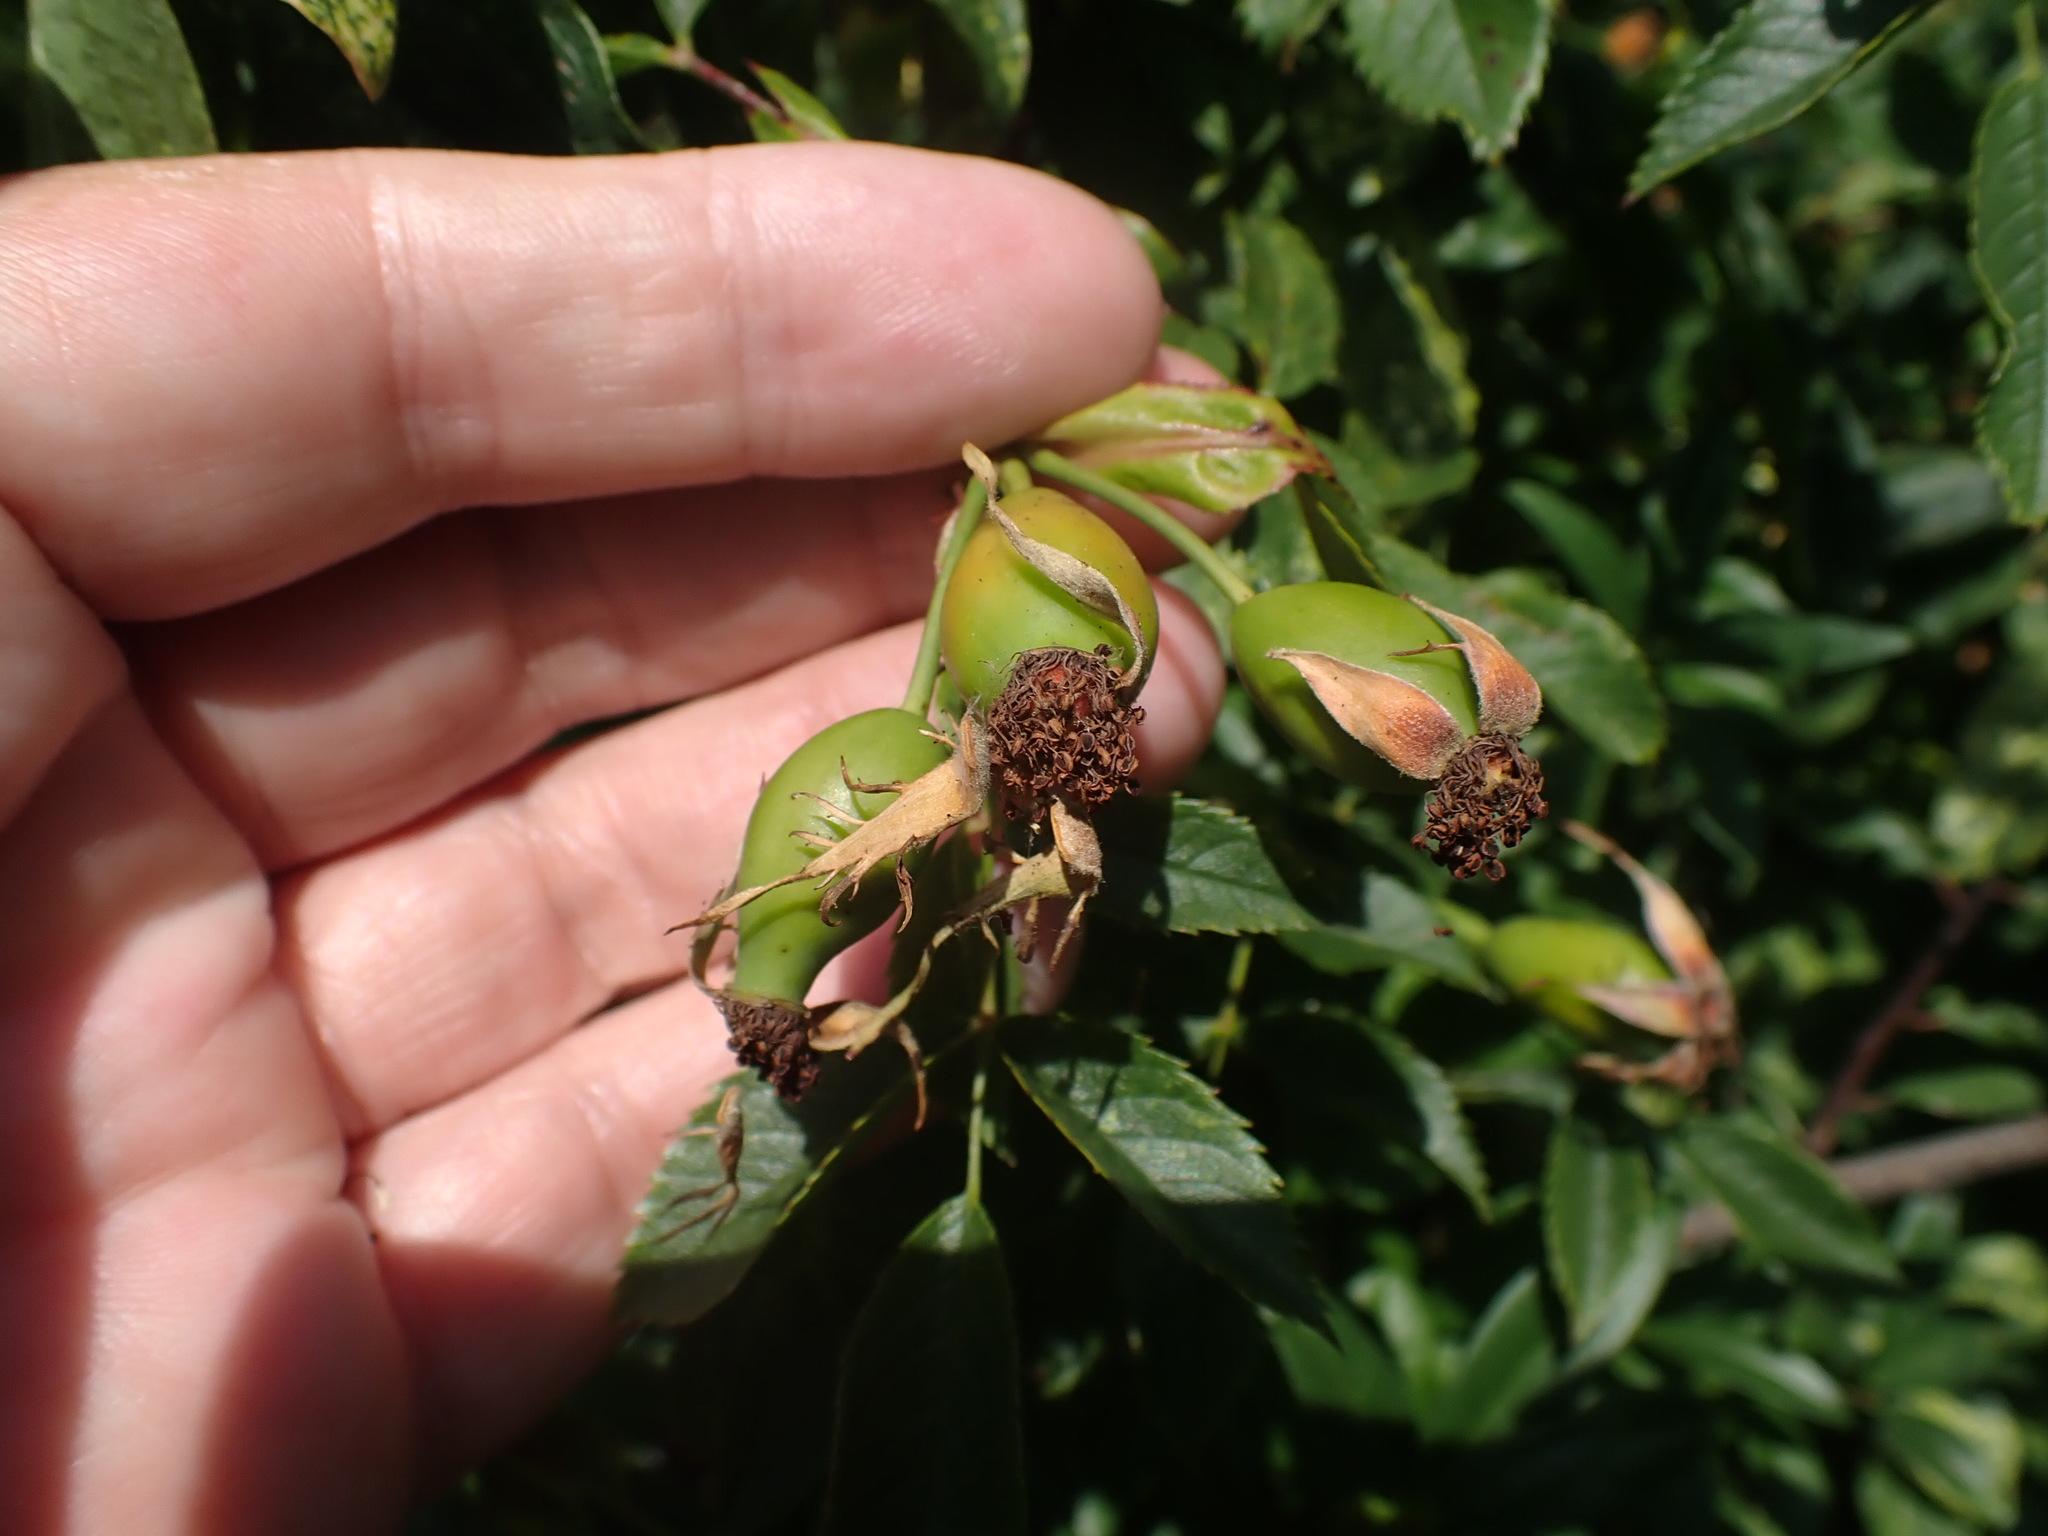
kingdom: Plantae
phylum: Tracheophyta
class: Magnoliopsida
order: Rosales
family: Rosaceae
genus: Rosa
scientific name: Rosa canina
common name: Dog rose
